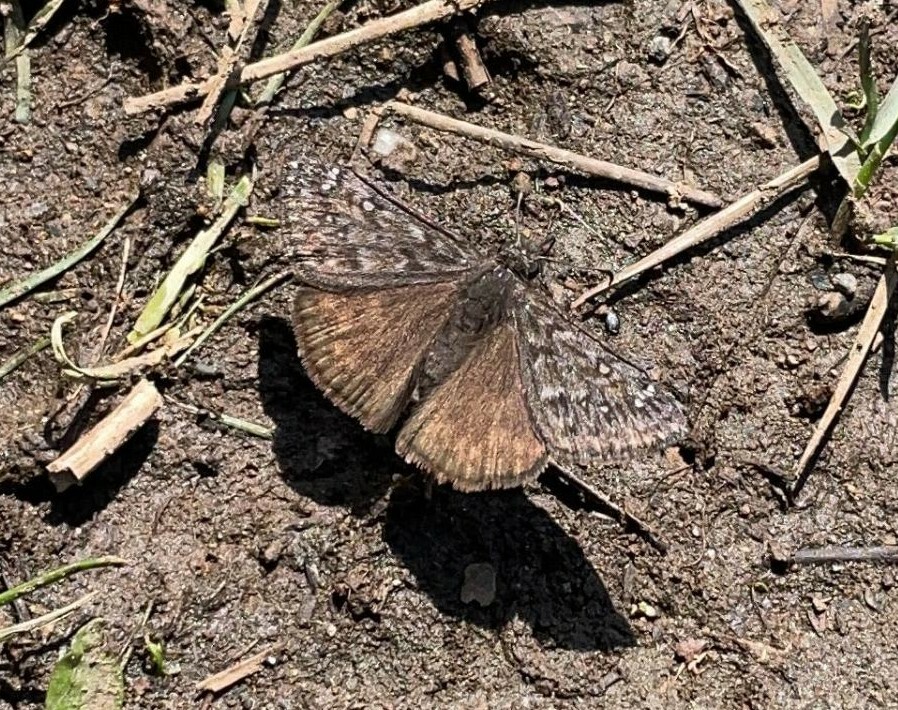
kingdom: Animalia
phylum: Arthropoda
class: Insecta
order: Lepidoptera
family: Hesperiidae
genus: Erynnis
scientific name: Erynnis propertius
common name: Propertius duskywing
